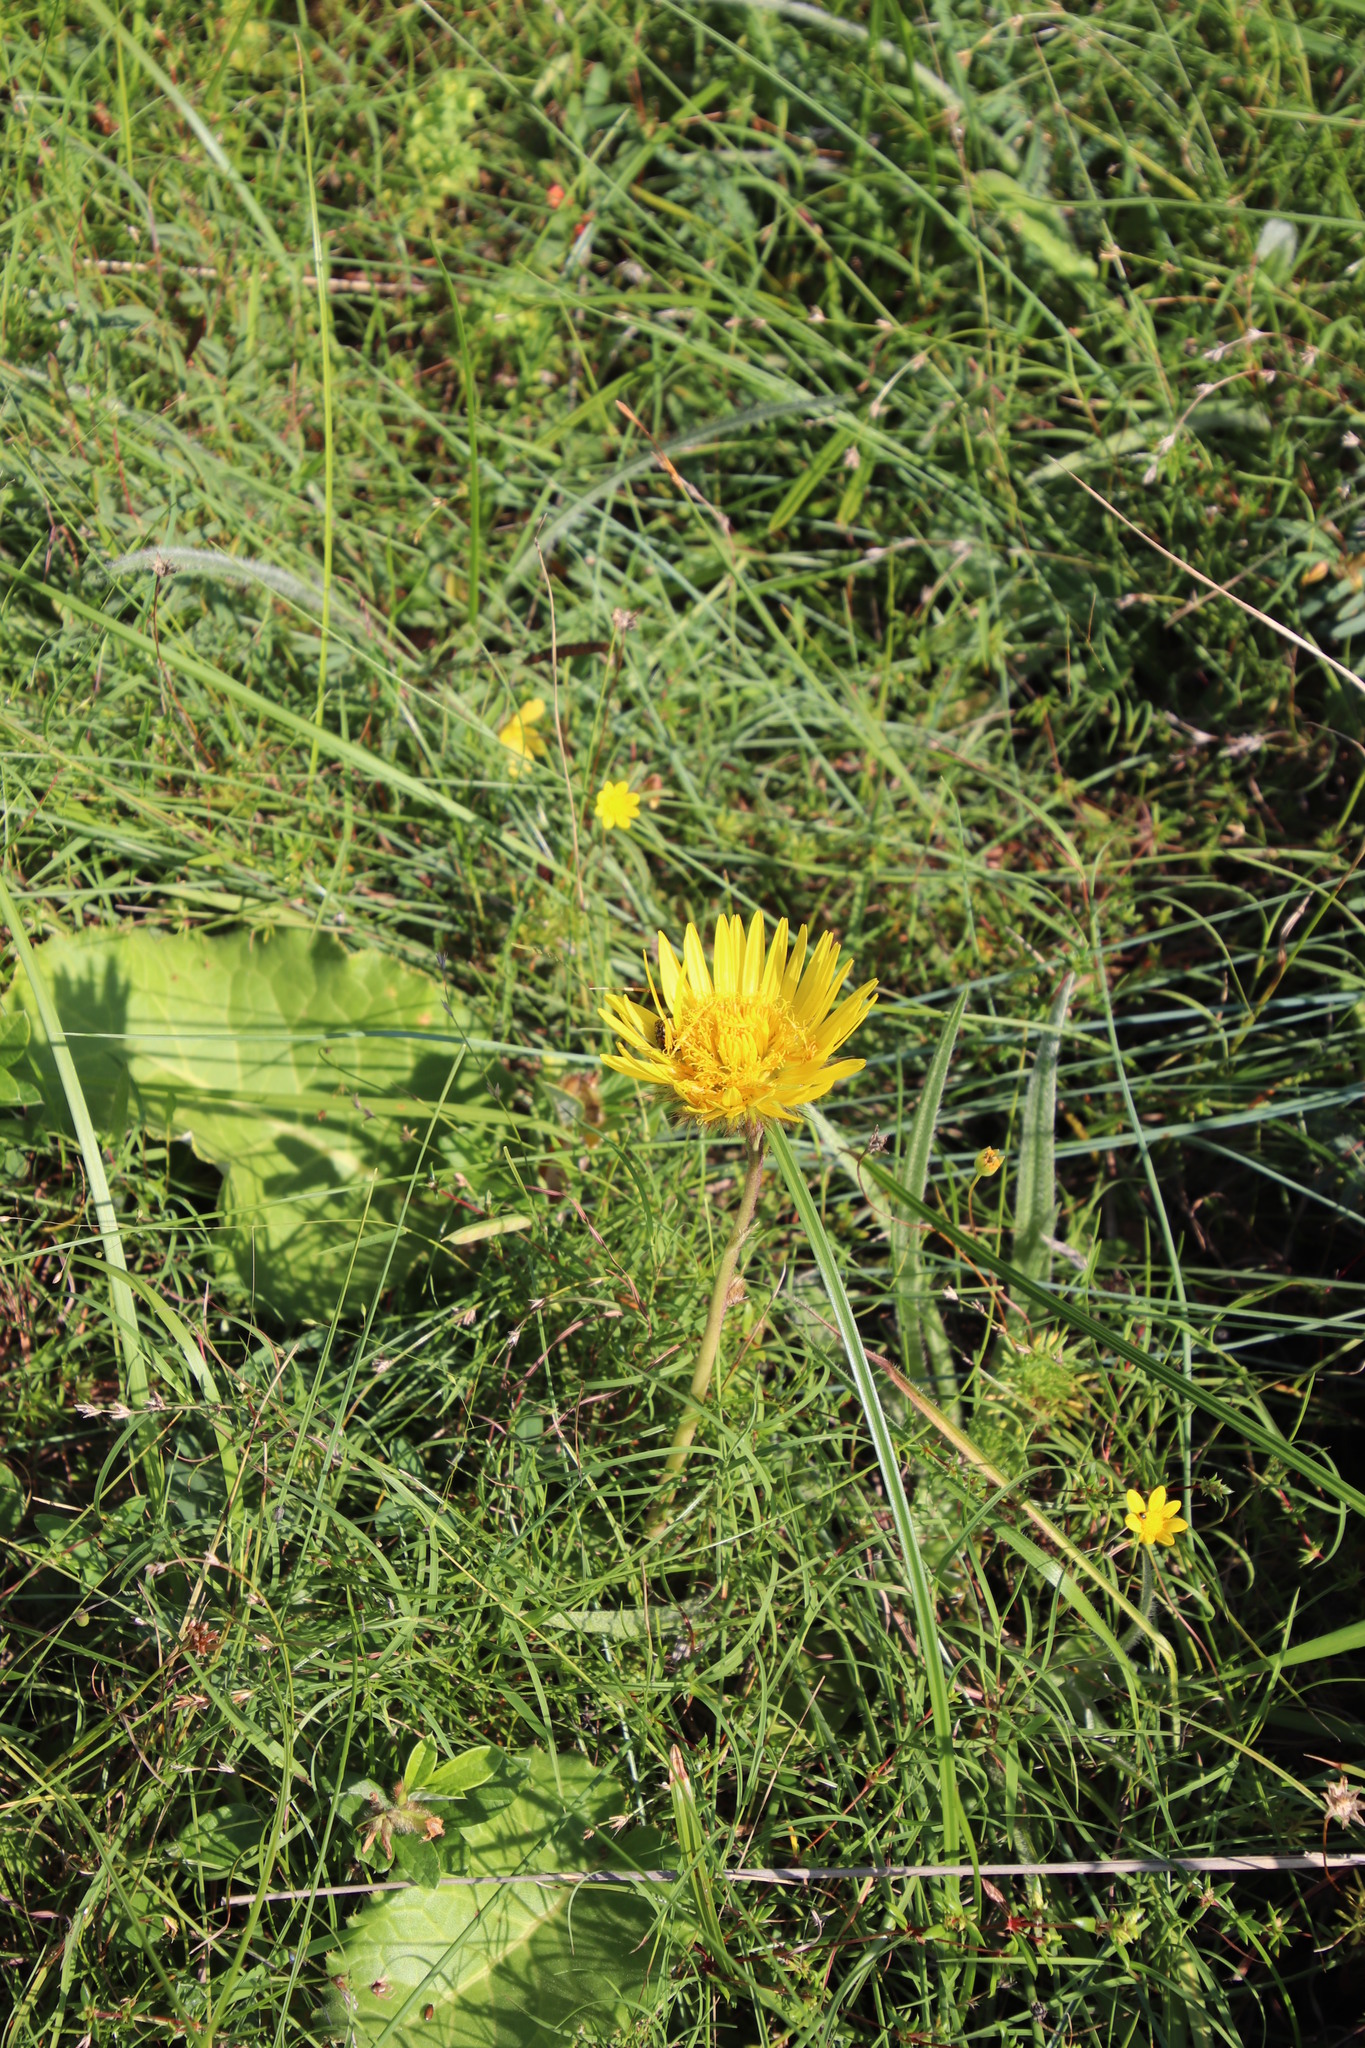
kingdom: Plantae
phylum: Tracheophyta
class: Magnoliopsida
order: Asterales
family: Asteraceae
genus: Berkheya
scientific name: Berkheya speciosa
